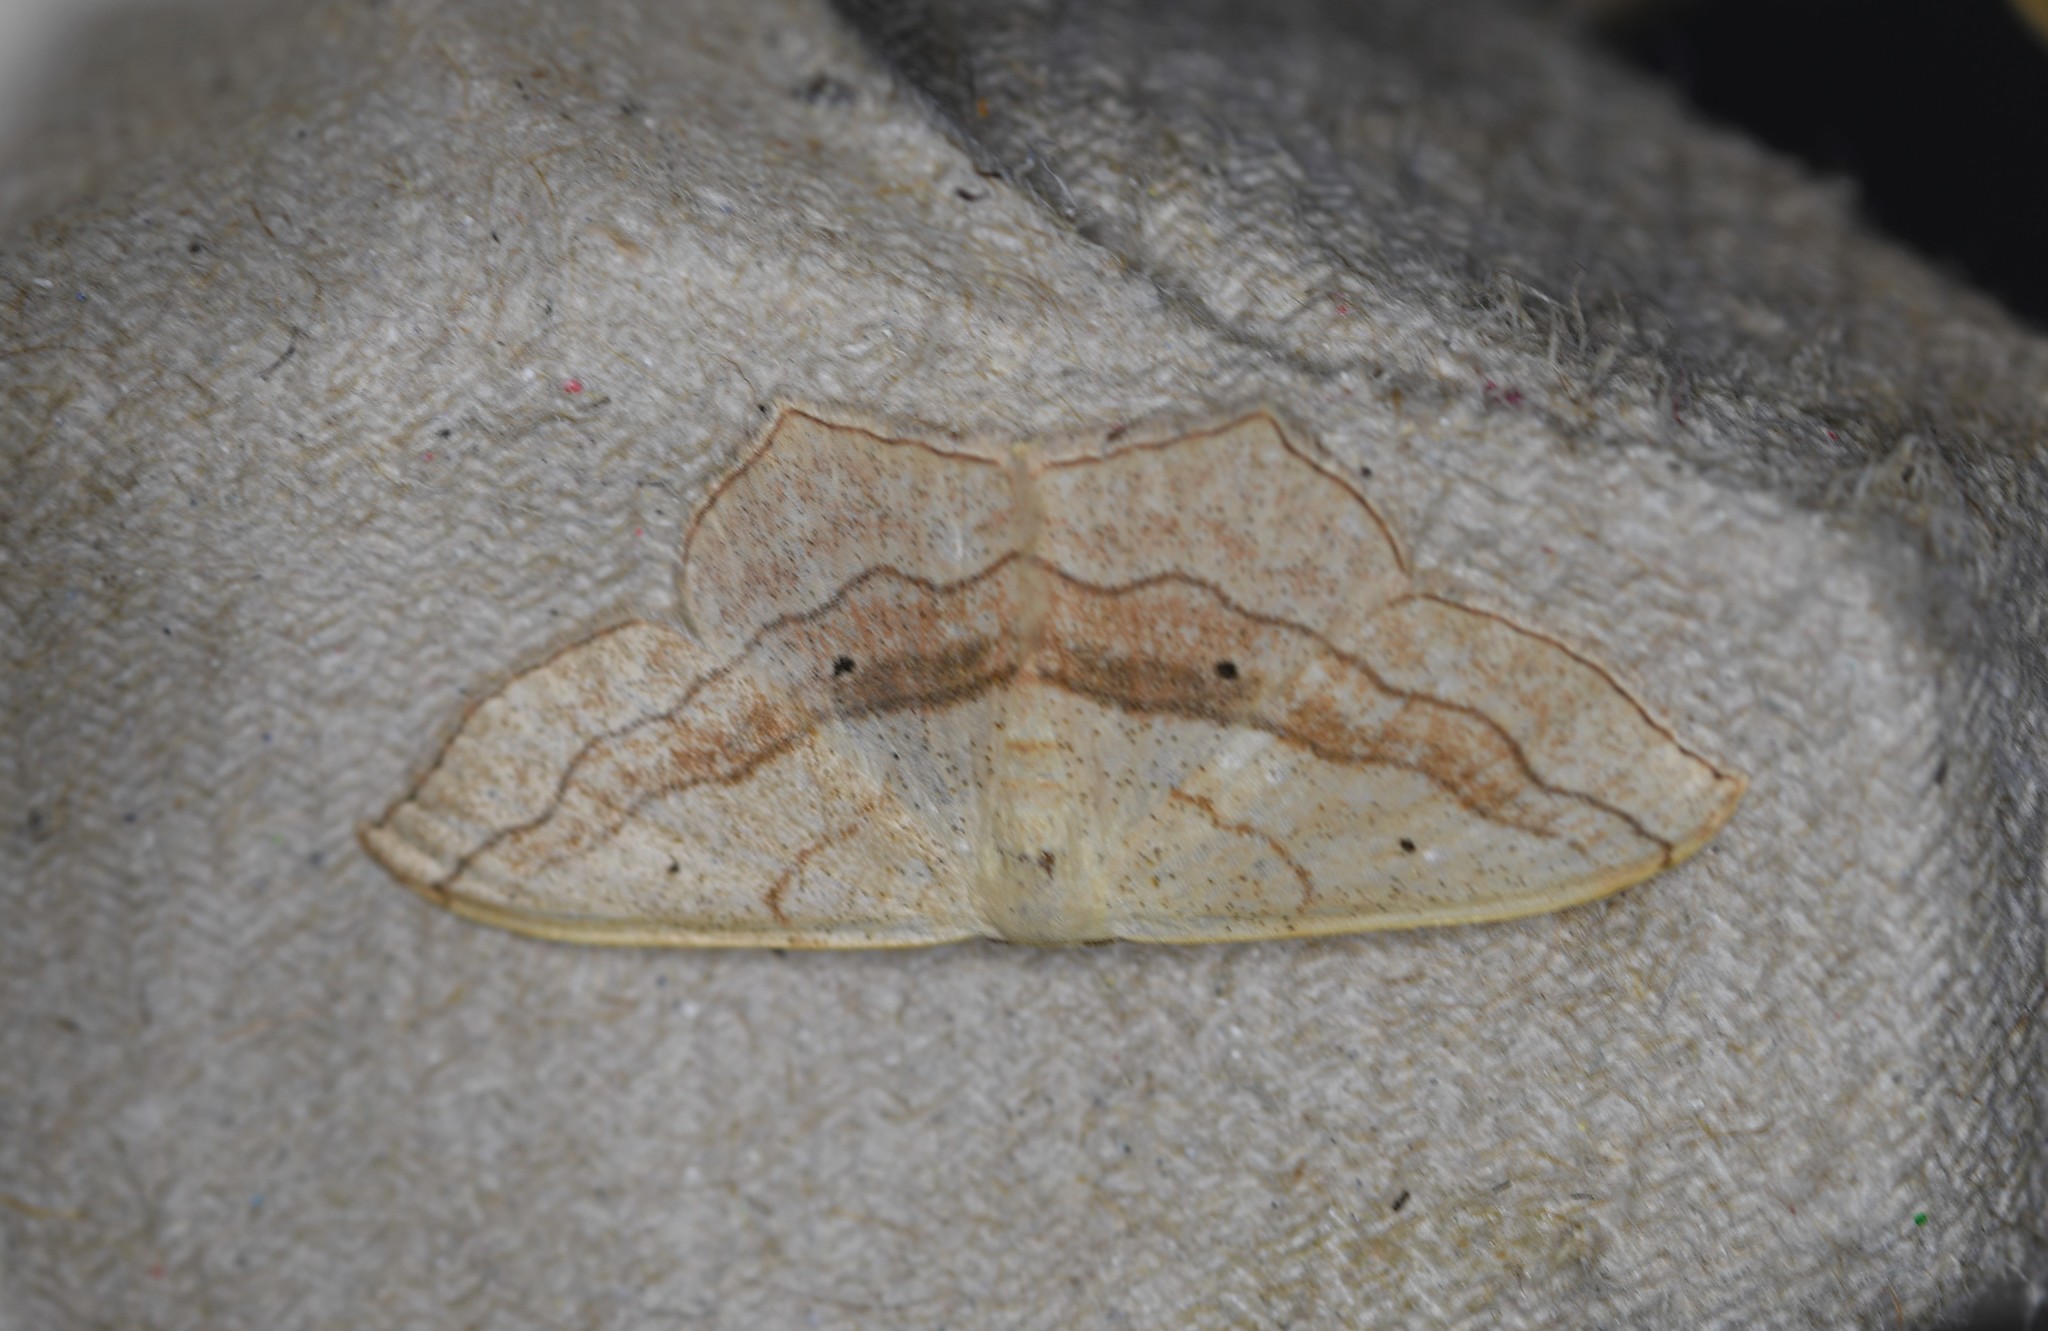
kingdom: Animalia
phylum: Arthropoda
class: Insecta
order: Lepidoptera
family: Geometridae
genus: Scopula
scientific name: Scopula imitaria
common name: Small blood-vein
